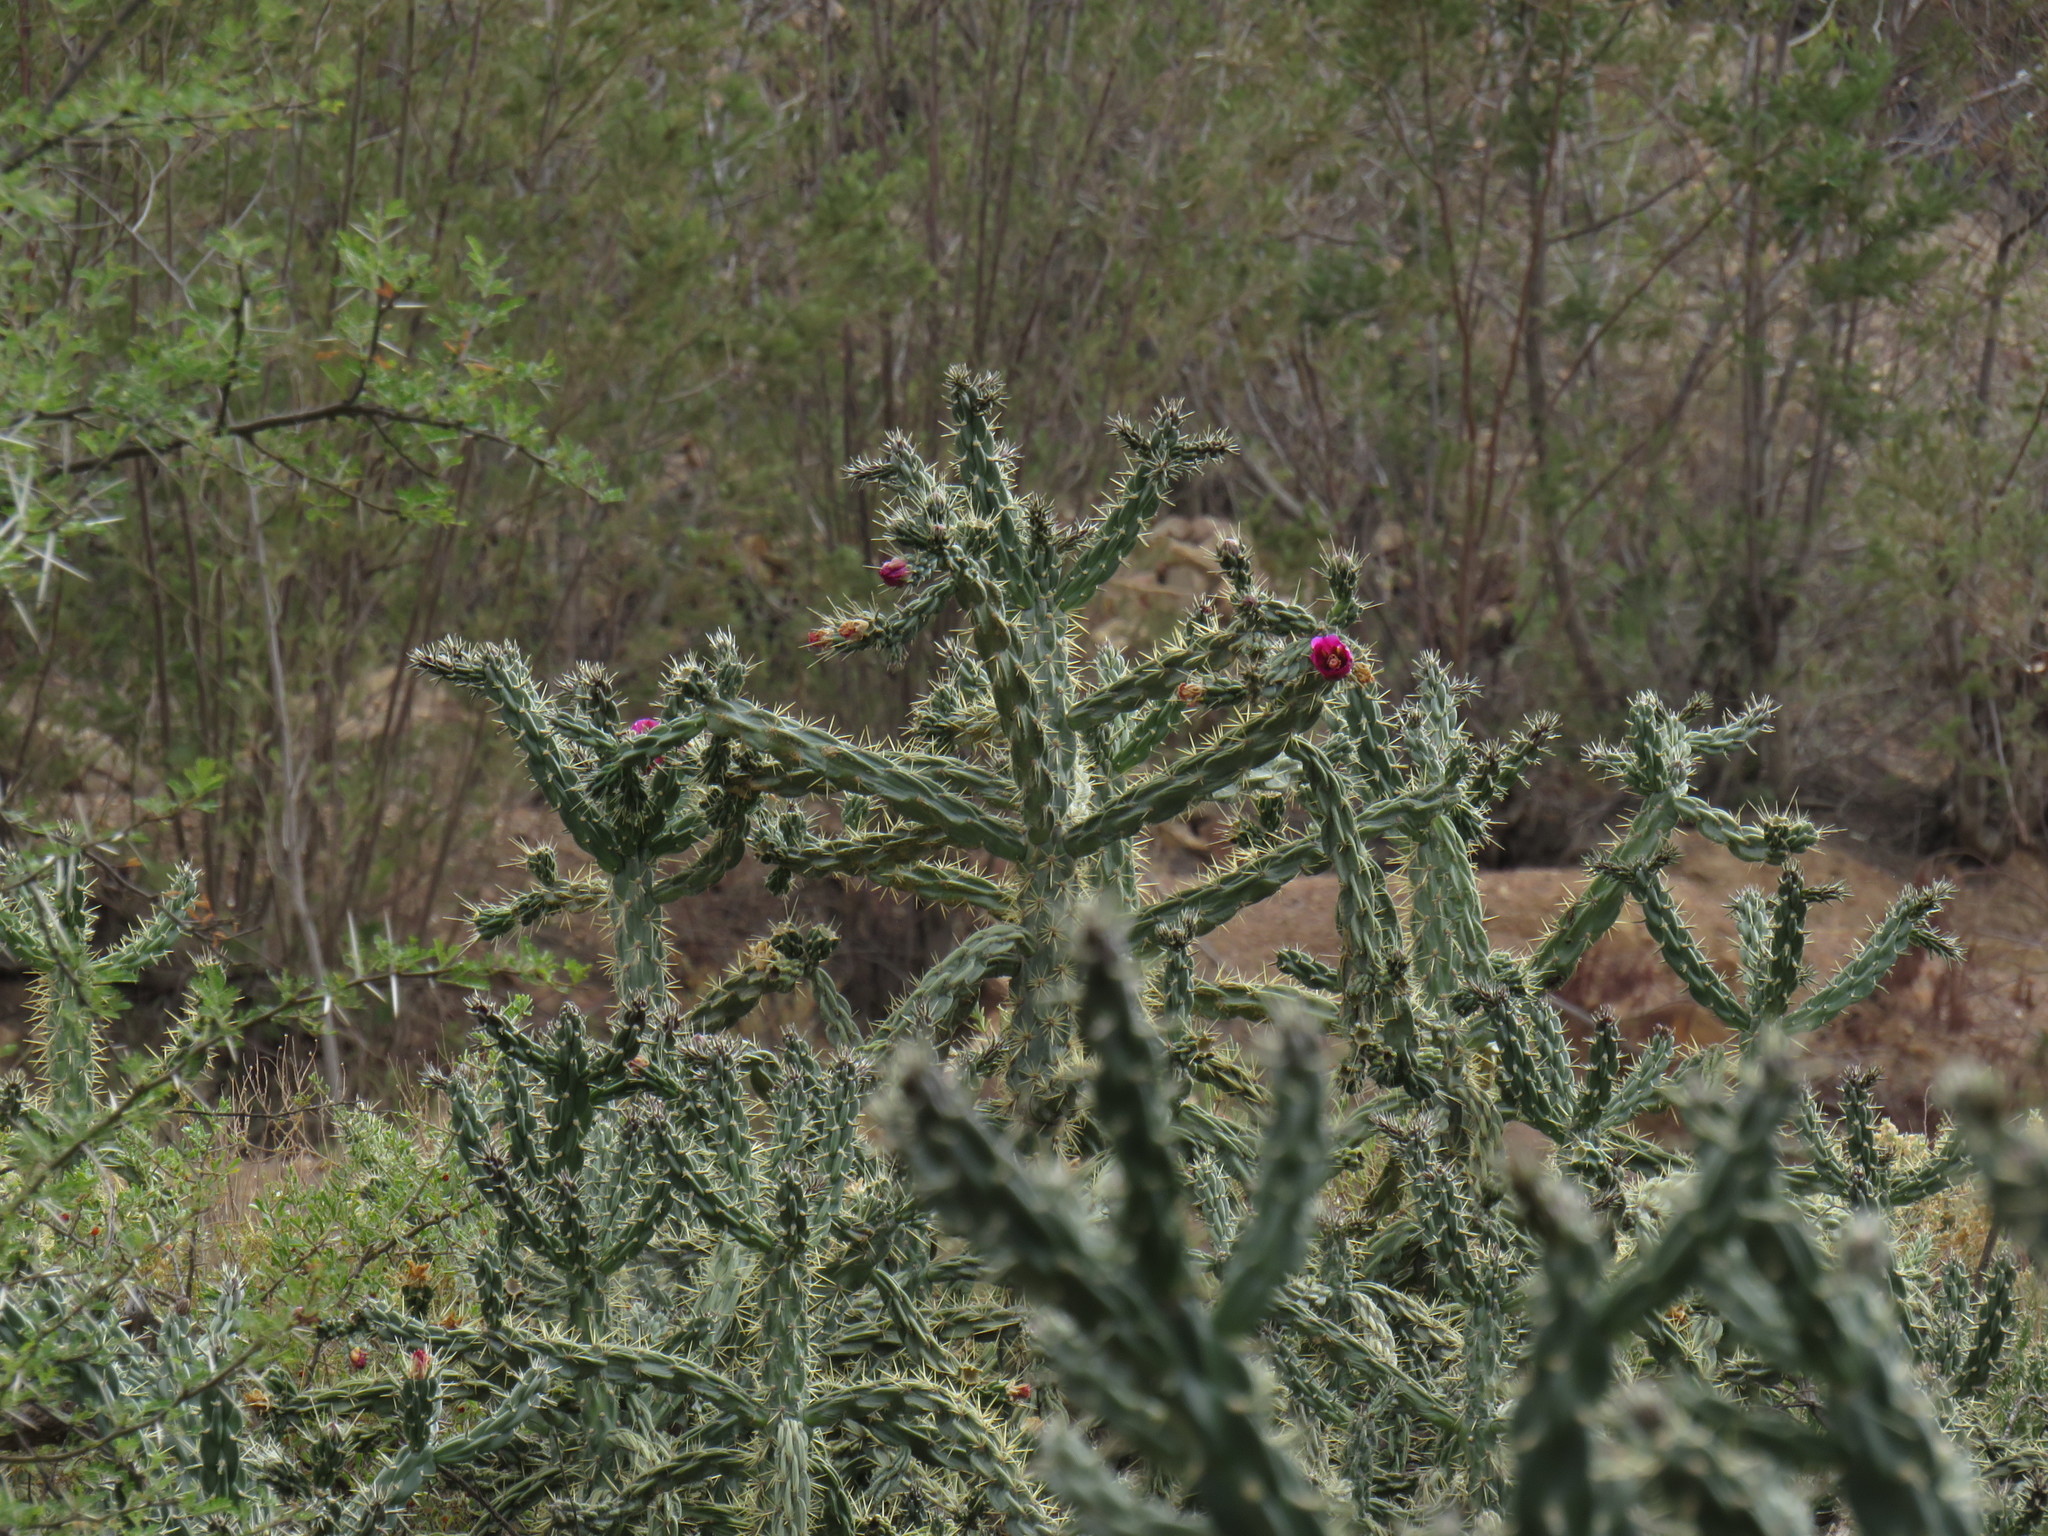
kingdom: Plantae
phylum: Tracheophyta
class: Magnoliopsida
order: Caryophyllales
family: Cactaceae
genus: Cylindropuntia
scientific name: Cylindropuntia imbricata
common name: Candelabrum cactus
